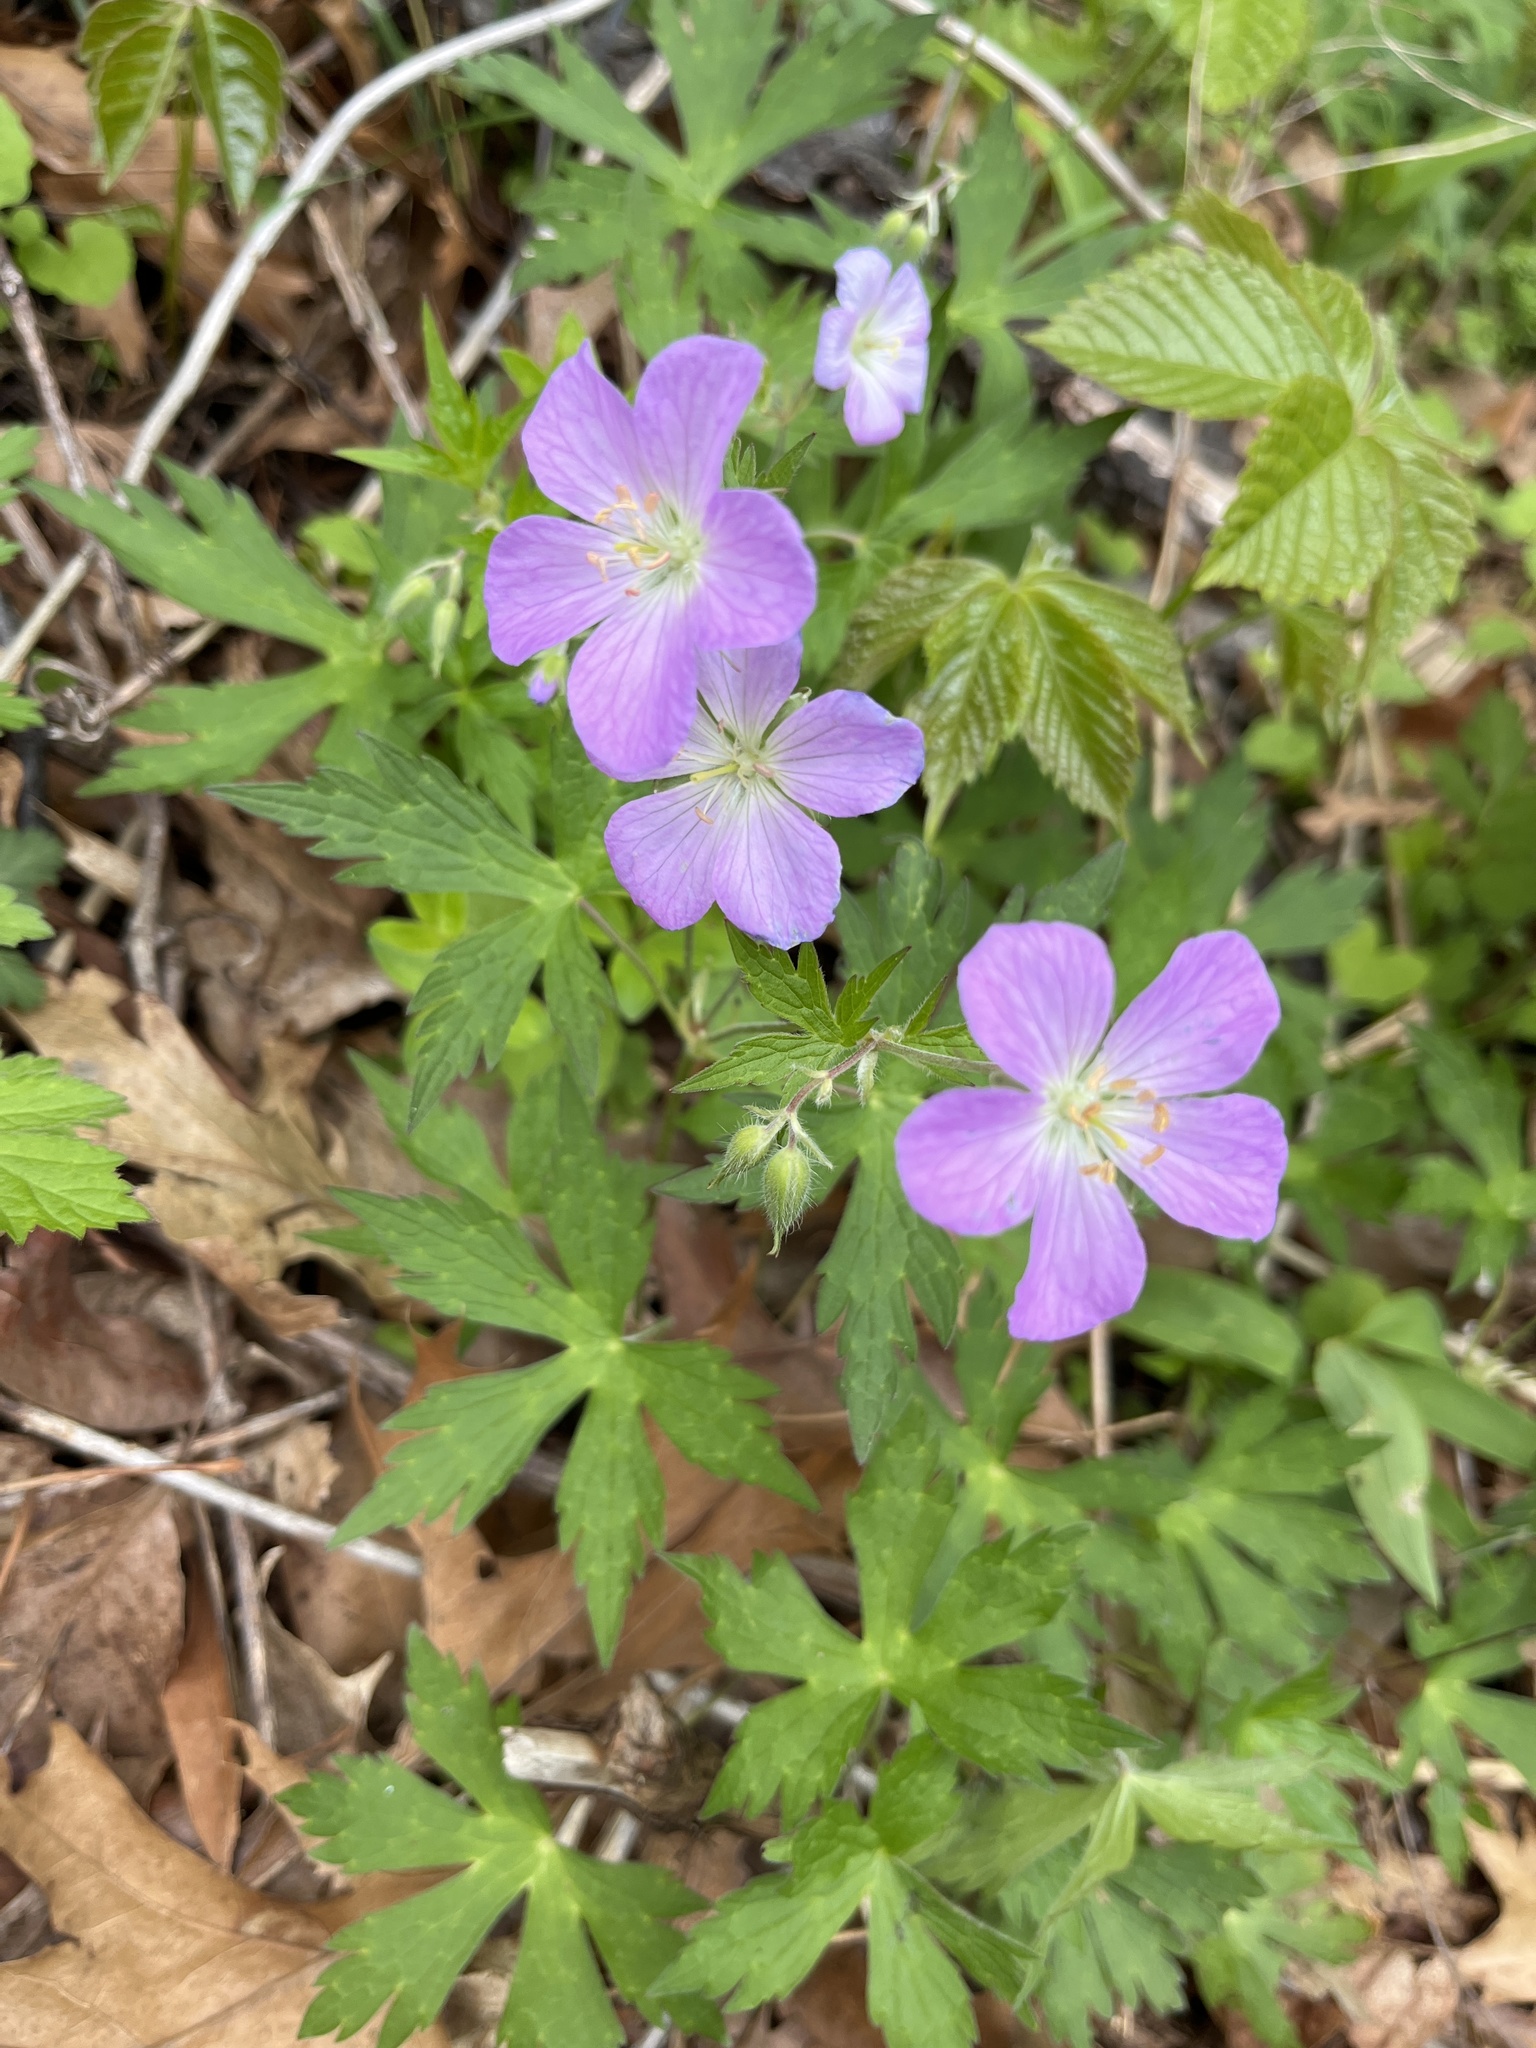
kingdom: Plantae
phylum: Tracheophyta
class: Magnoliopsida
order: Geraniales
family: Geraniaceae
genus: Geranium
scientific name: Geranium maculatum
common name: Spotted geranium
